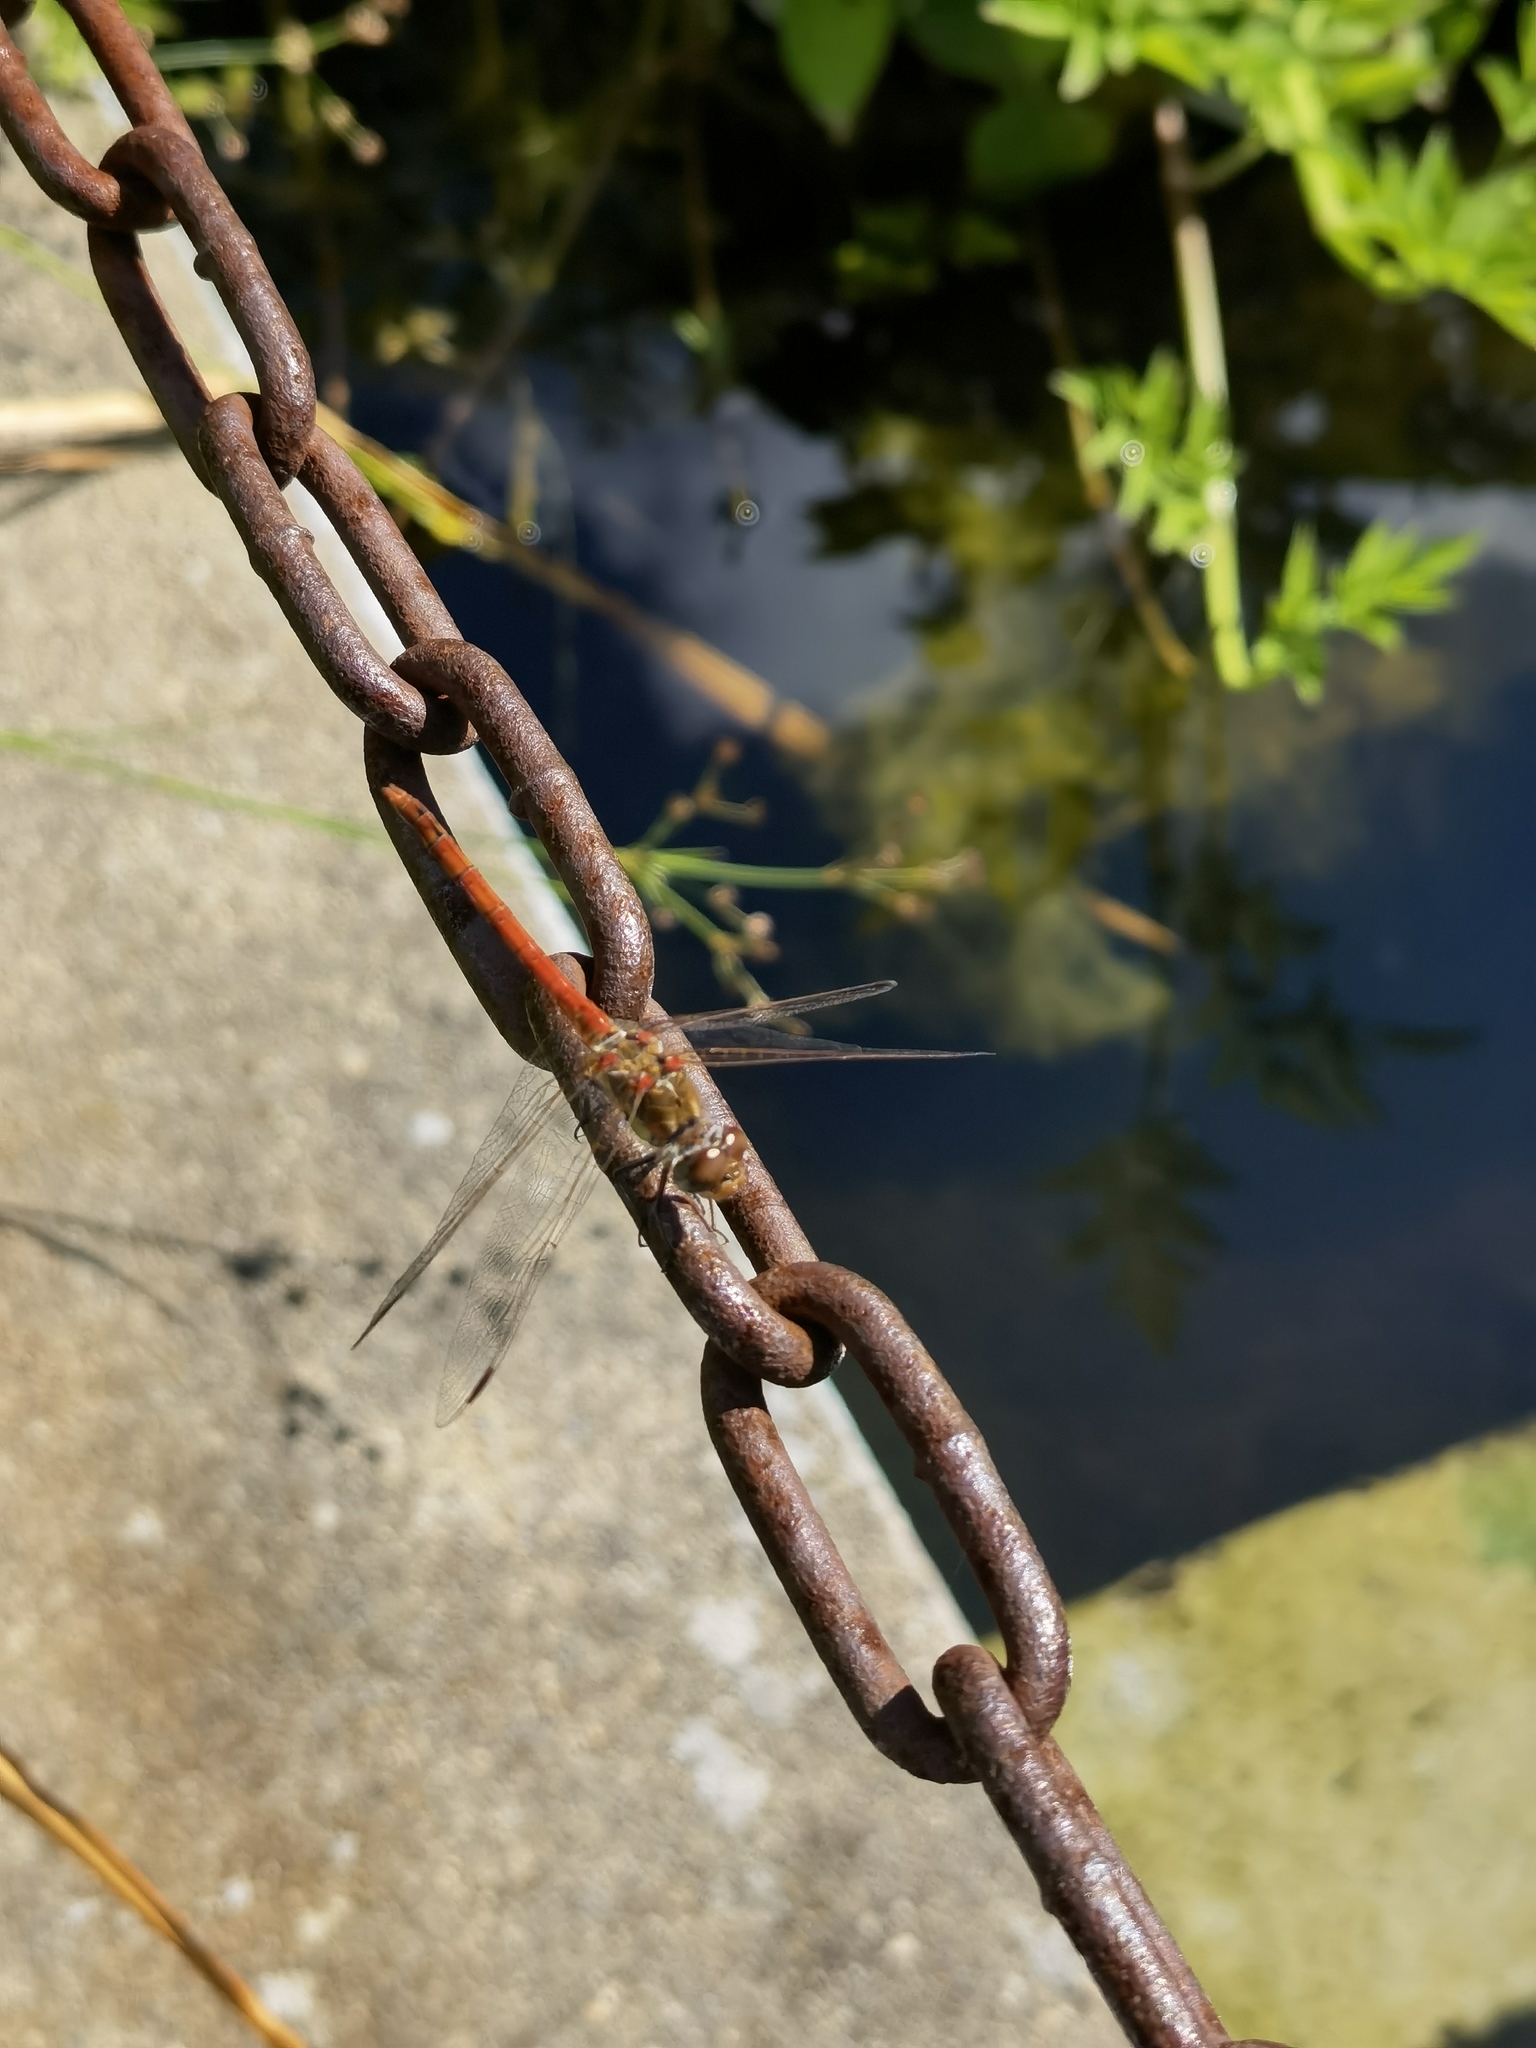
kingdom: Animalia
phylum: Arthropoda
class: Insecta
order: Odonata
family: Libellulidae
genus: Sympetrum
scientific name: Sympetrum striolatum
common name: Common darter
